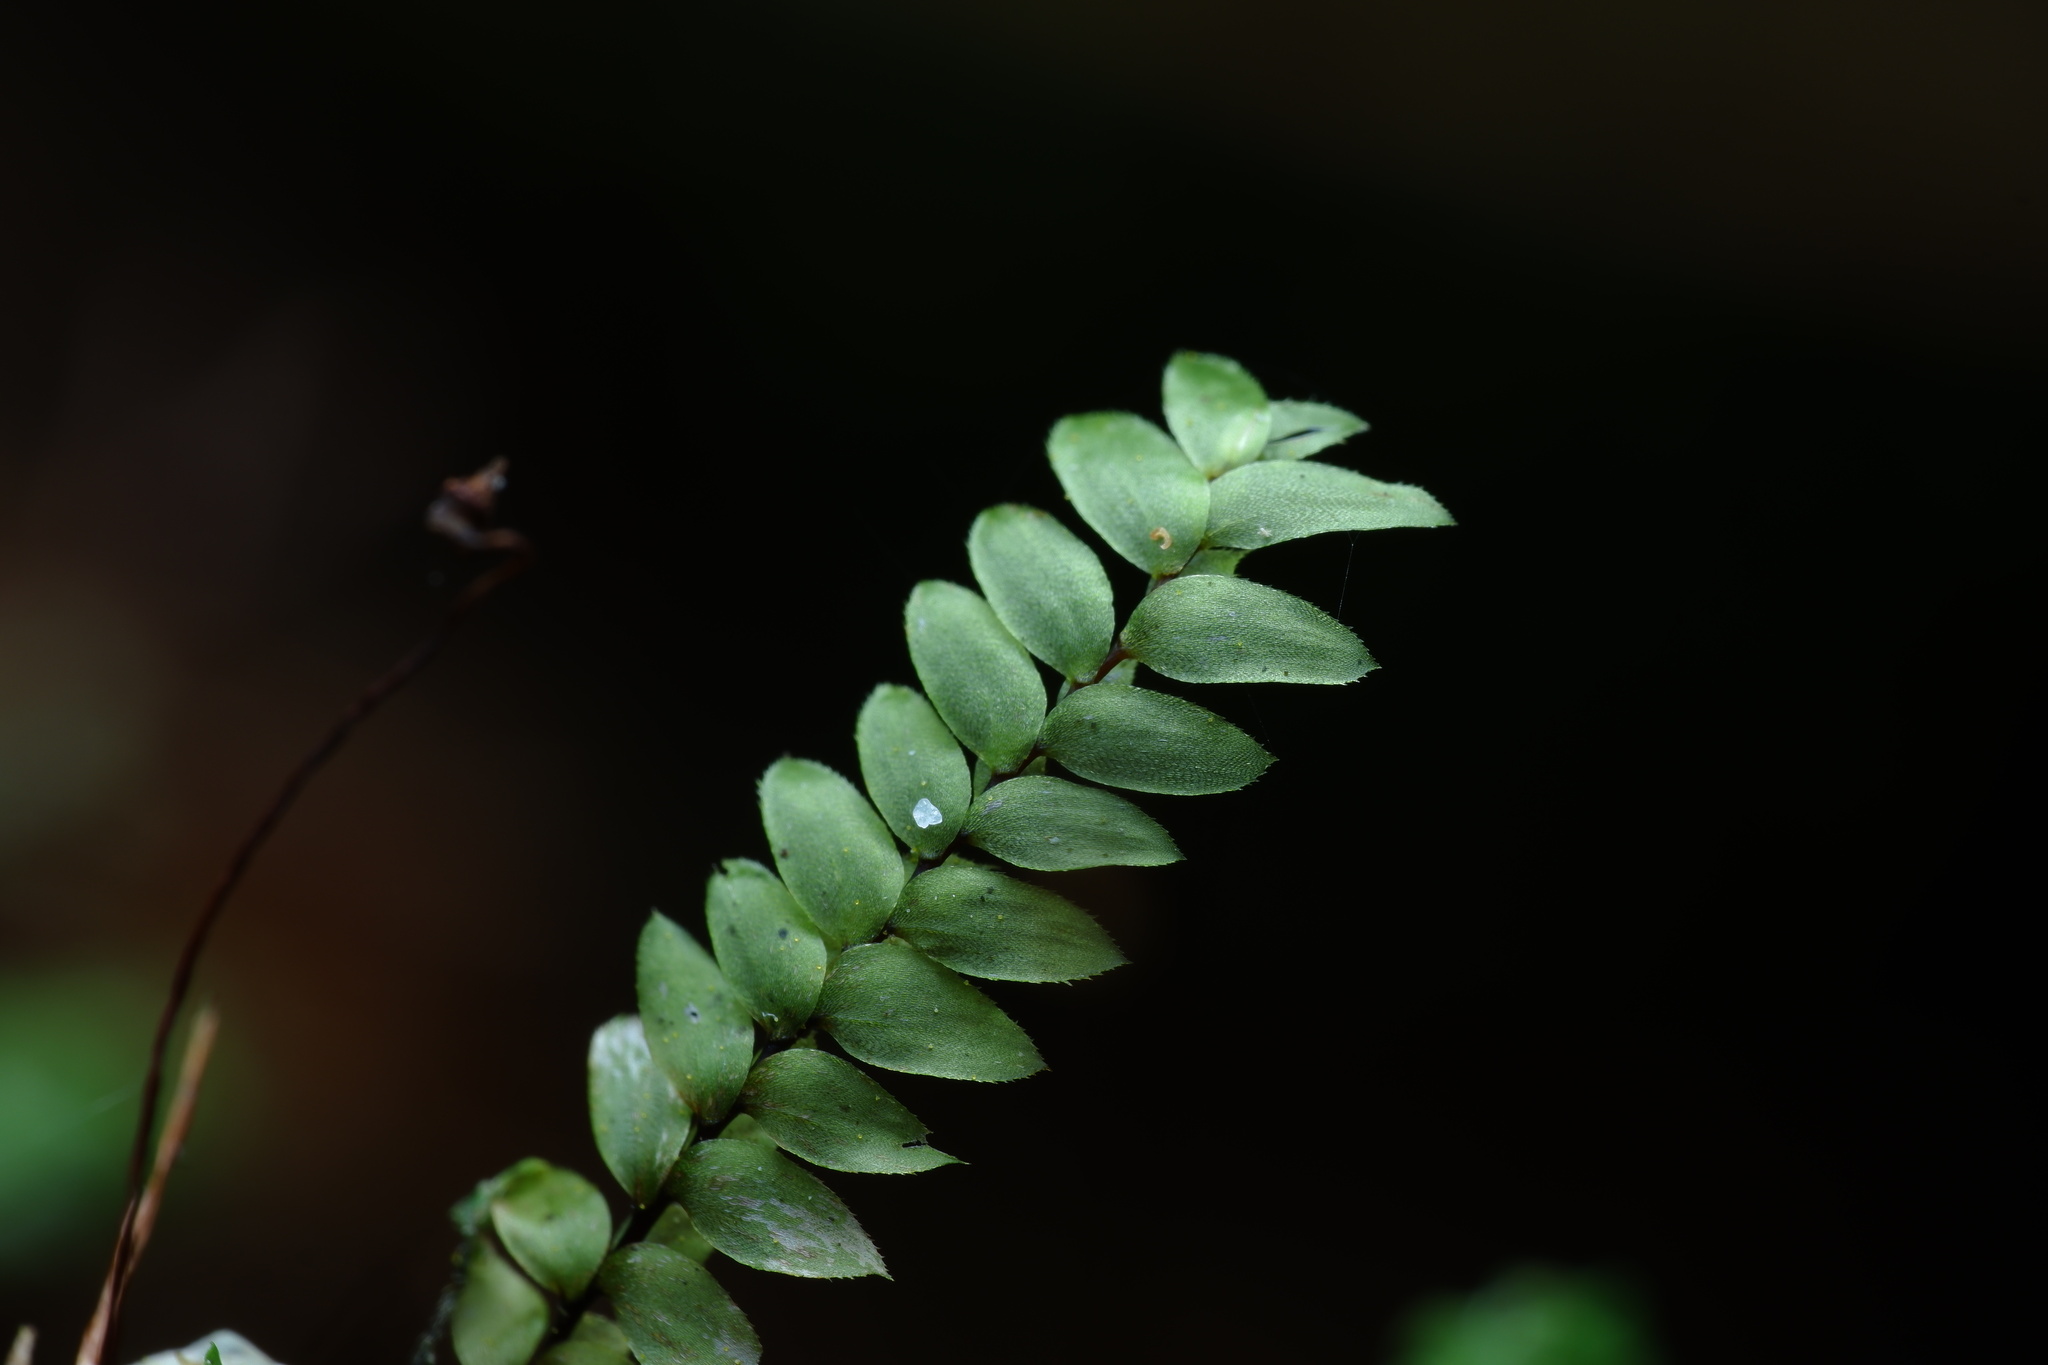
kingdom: Plantae
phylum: Bryophyta
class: Bryopsida
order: Hypopterygiales
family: Hypopterygiaceae
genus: Cyathophorum
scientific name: Cyathophorum bulbosum
